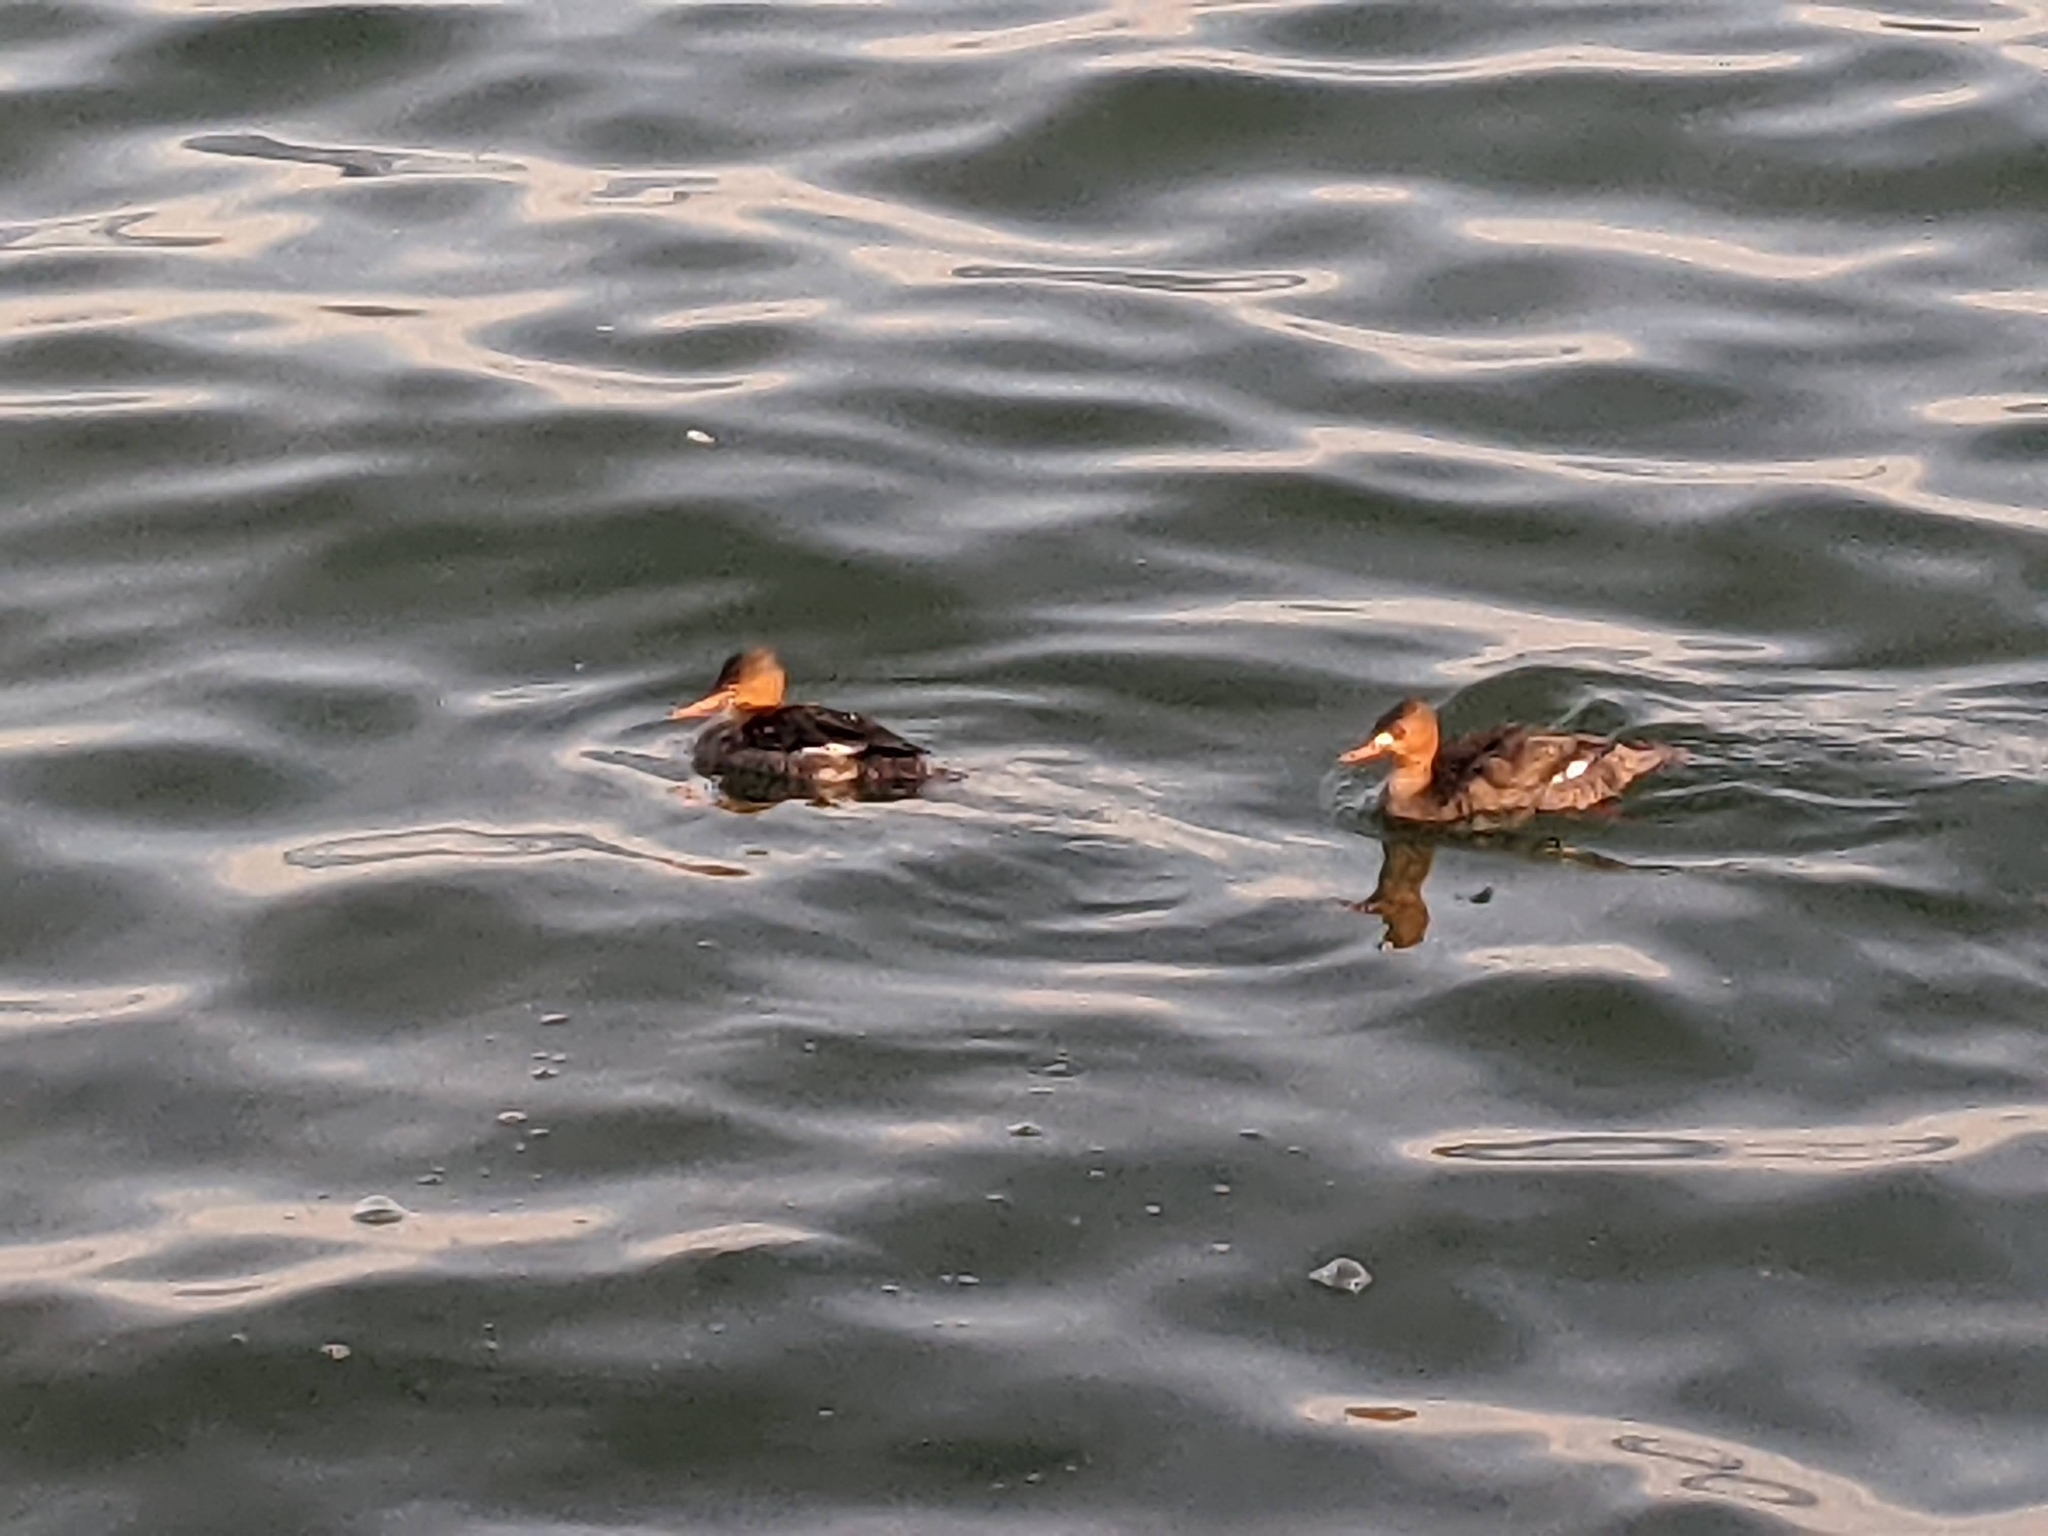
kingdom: Animalia
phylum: Chordata
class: Aves
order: Anseriformes
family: Anatidae
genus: Mergus
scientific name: Mergus serrator
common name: Red-breasted merganser
